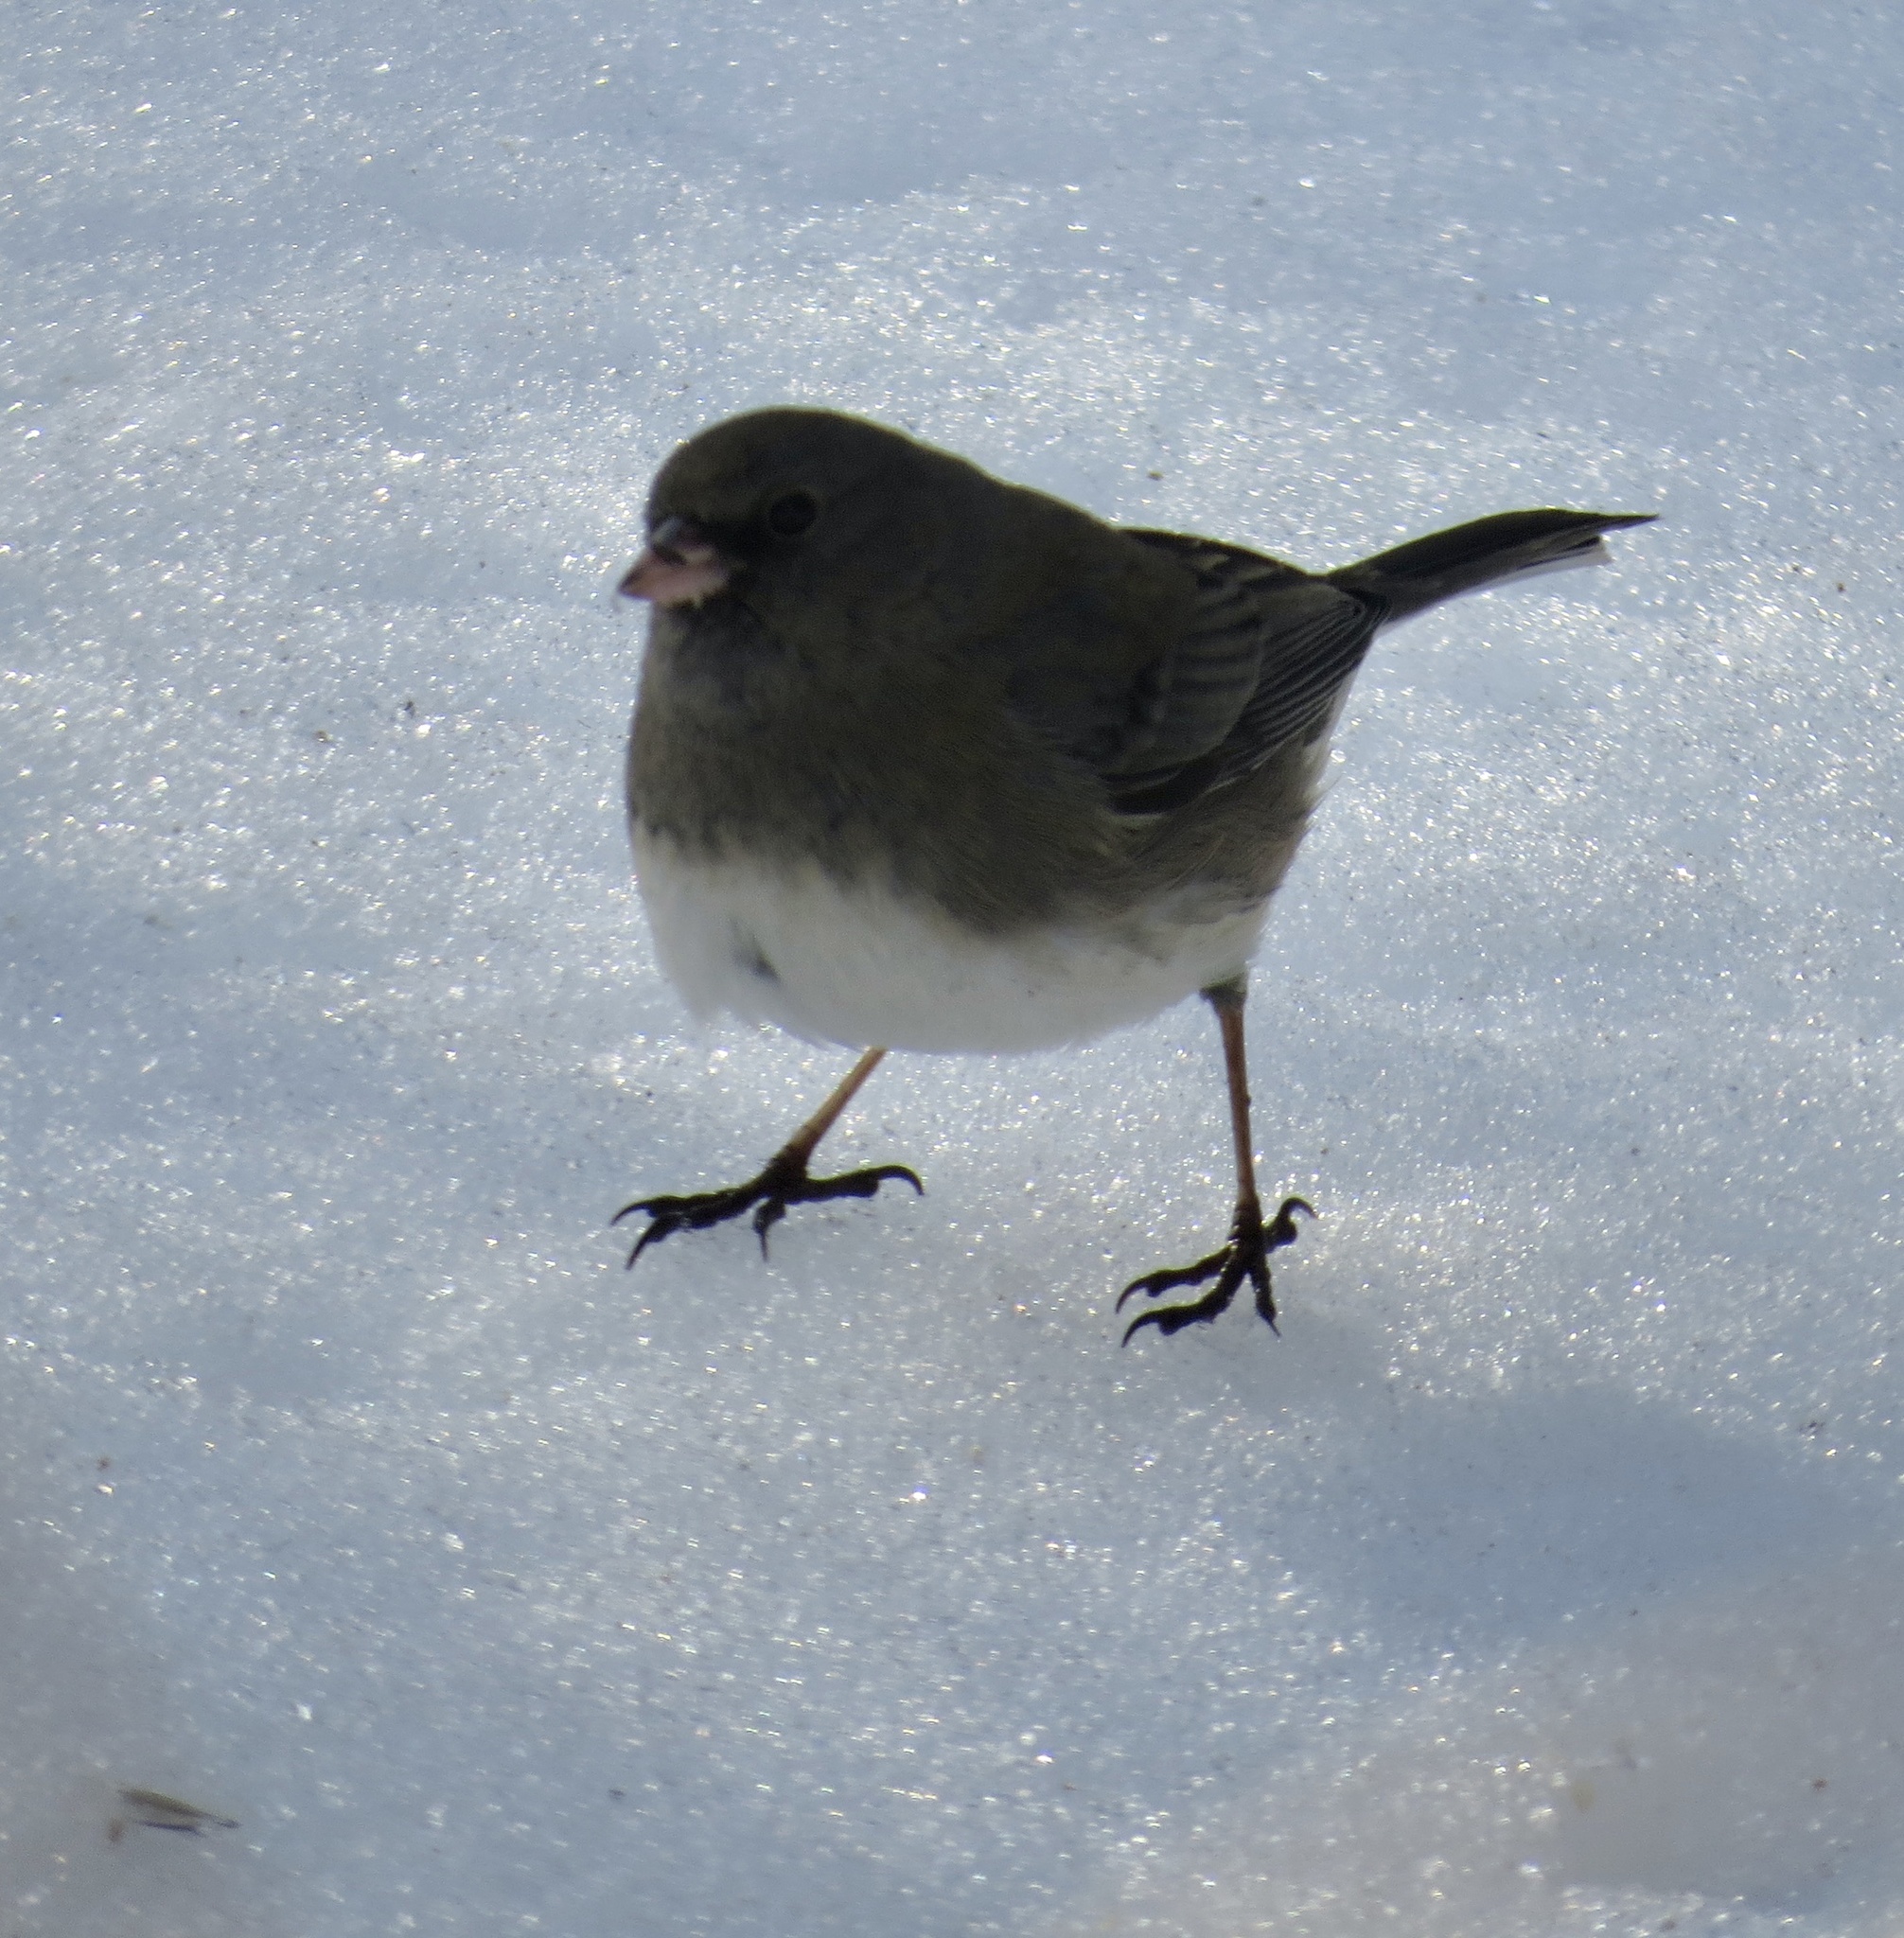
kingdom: Animalia
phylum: Chordata
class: Aves
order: Passeriformes
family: Passerellidae
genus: Junco
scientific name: Junco hyemalis
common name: Dark-eyed junco
